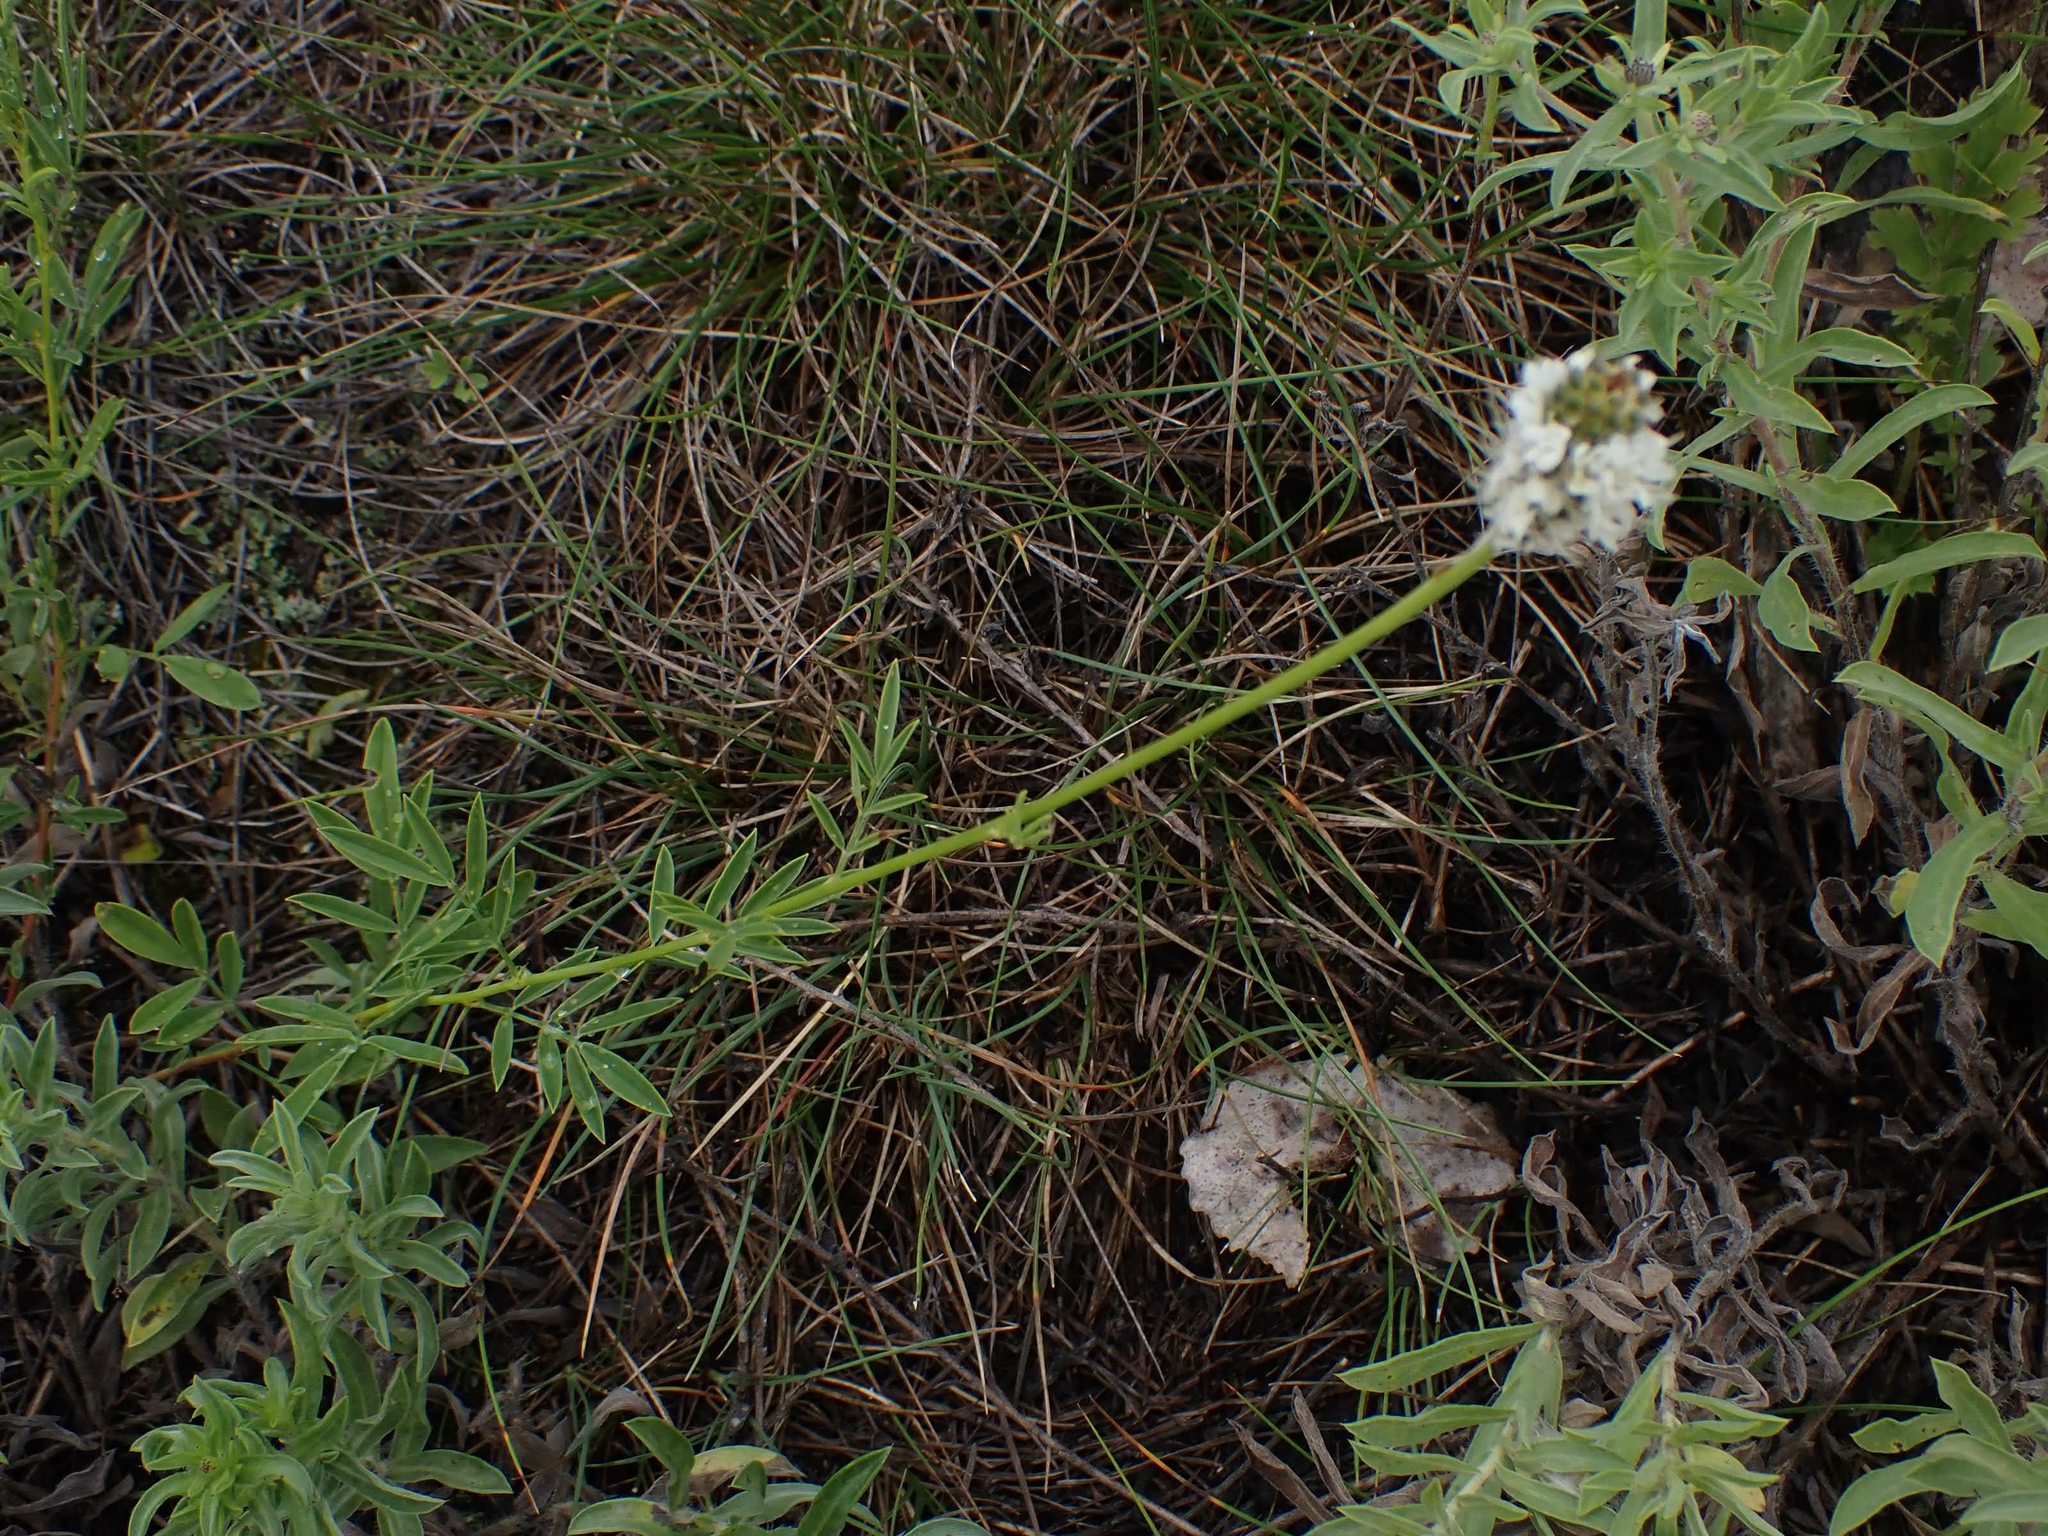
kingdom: Plantae
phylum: Tracheophyta
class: Magnoliopsida
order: Fabales
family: Fabaceae
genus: Dalea
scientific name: Dalea candida
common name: White prairie-clover
